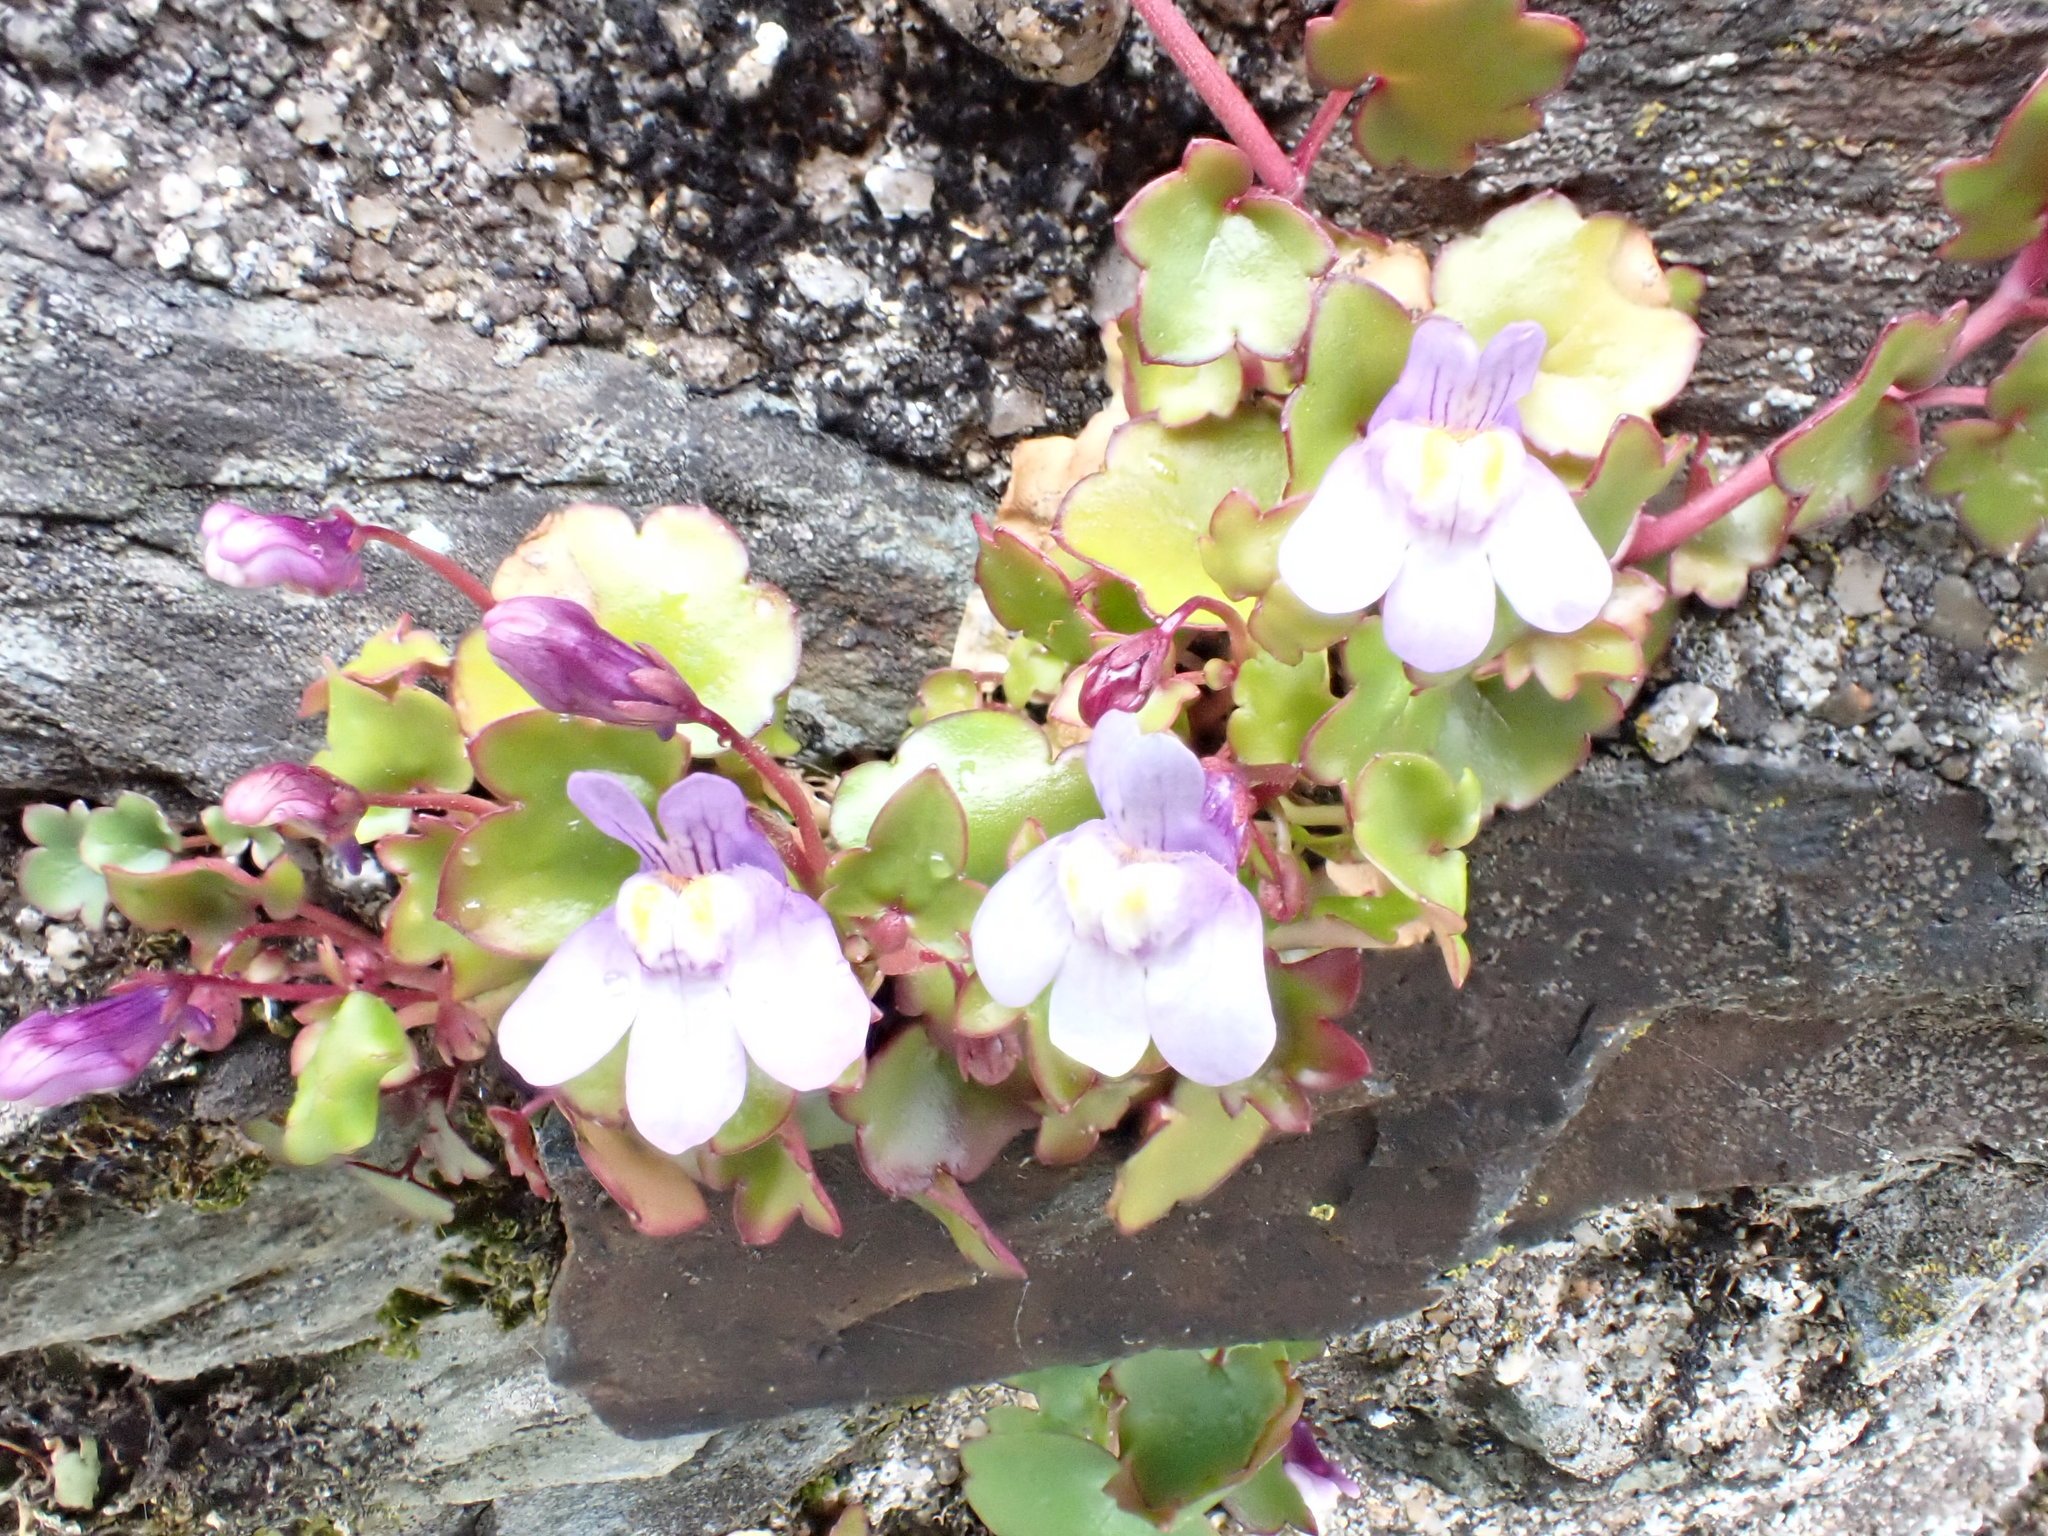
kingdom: Plantae
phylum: Tracheophyta
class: Magnoliopsida
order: Lamiales
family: Plantaginaceae
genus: Cymbalaria
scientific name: Cymbalaria muralis
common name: Ivy-leaved toadflax
